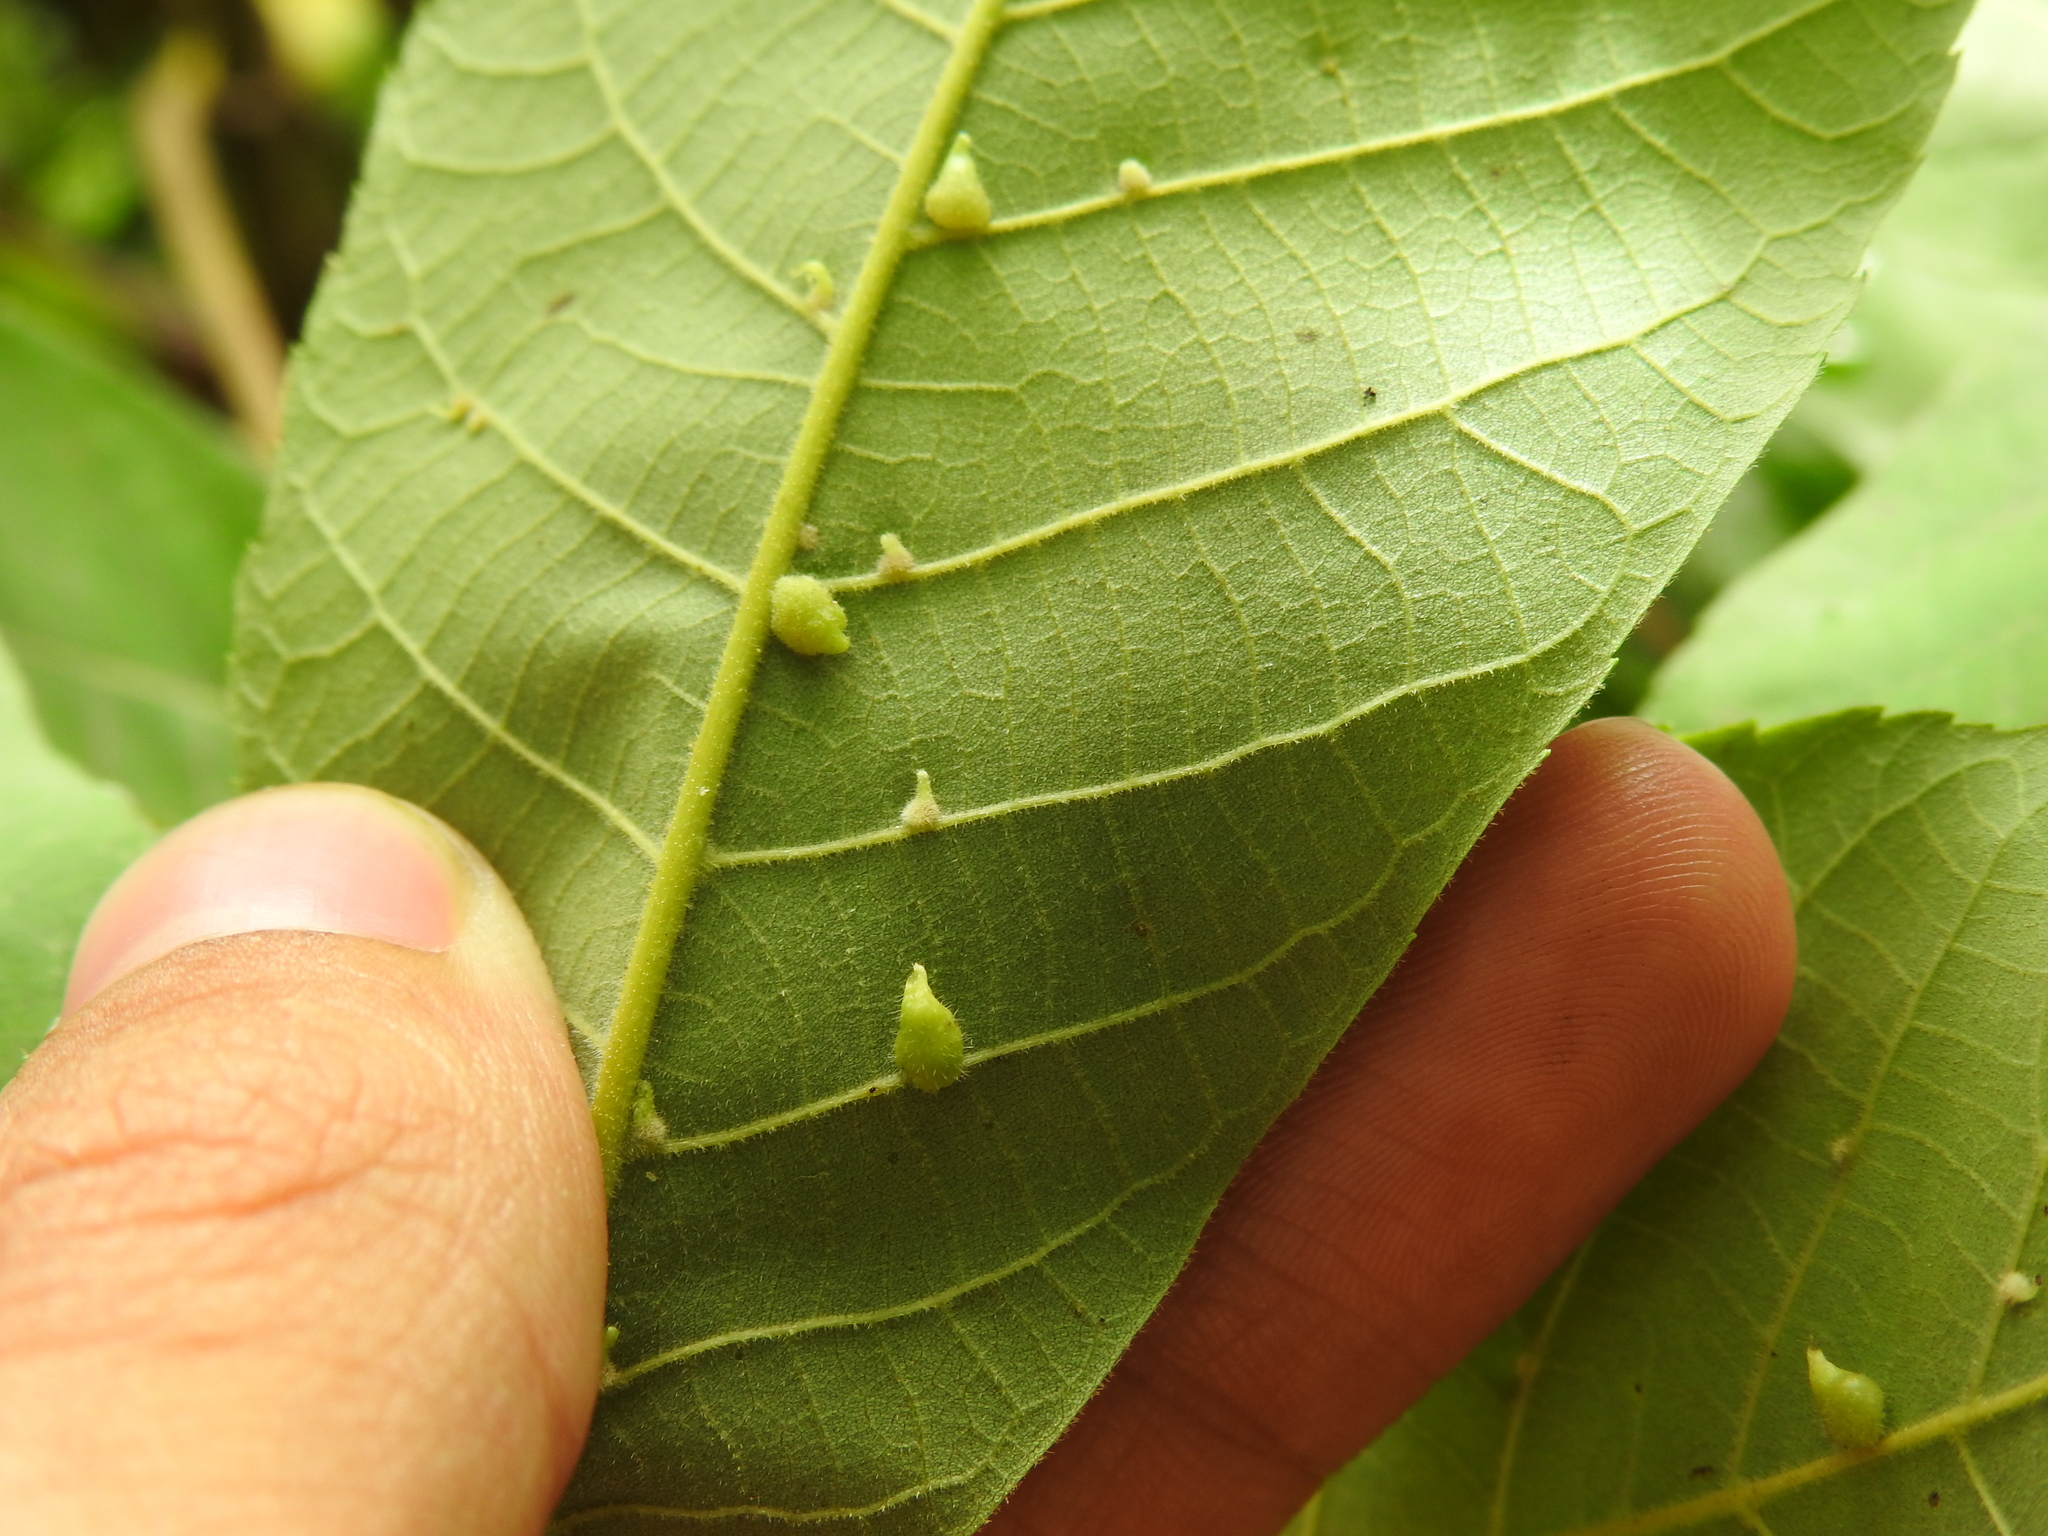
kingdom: Animalia
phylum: Arthropoda
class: Insecta
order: Diptera
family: Cecidomyiidae
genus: Caryomyia
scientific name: Caryomyia inclinata
